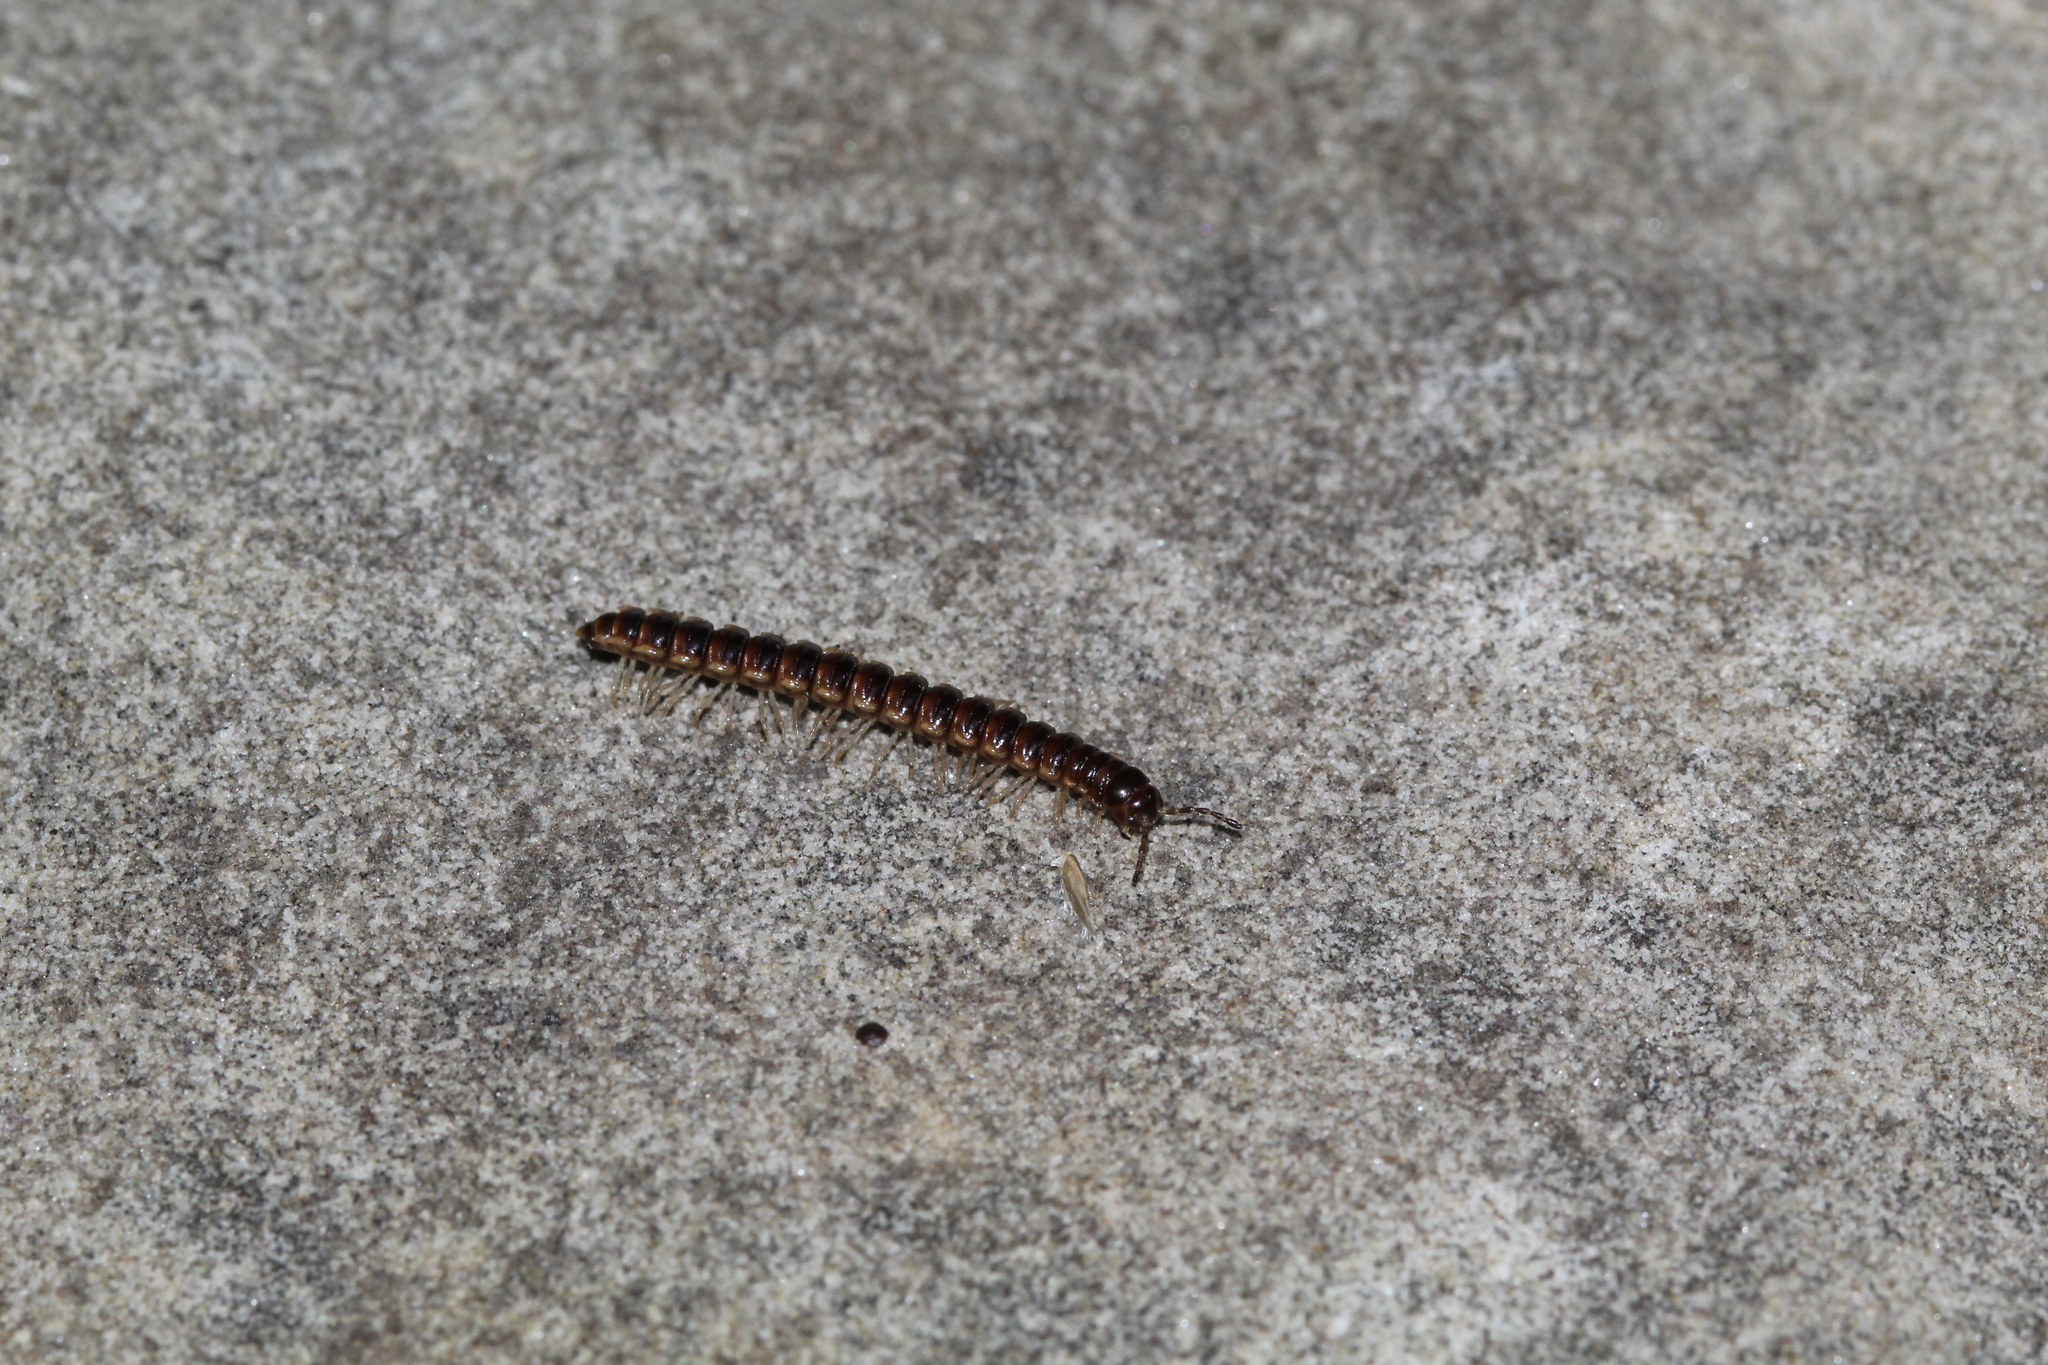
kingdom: Animalia
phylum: Arthropoda
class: Diplopoda
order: Polydesmida
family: Paradoxosomatidae
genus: Oxidus
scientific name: Oxidus gracilis
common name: Greenhouse millipede
